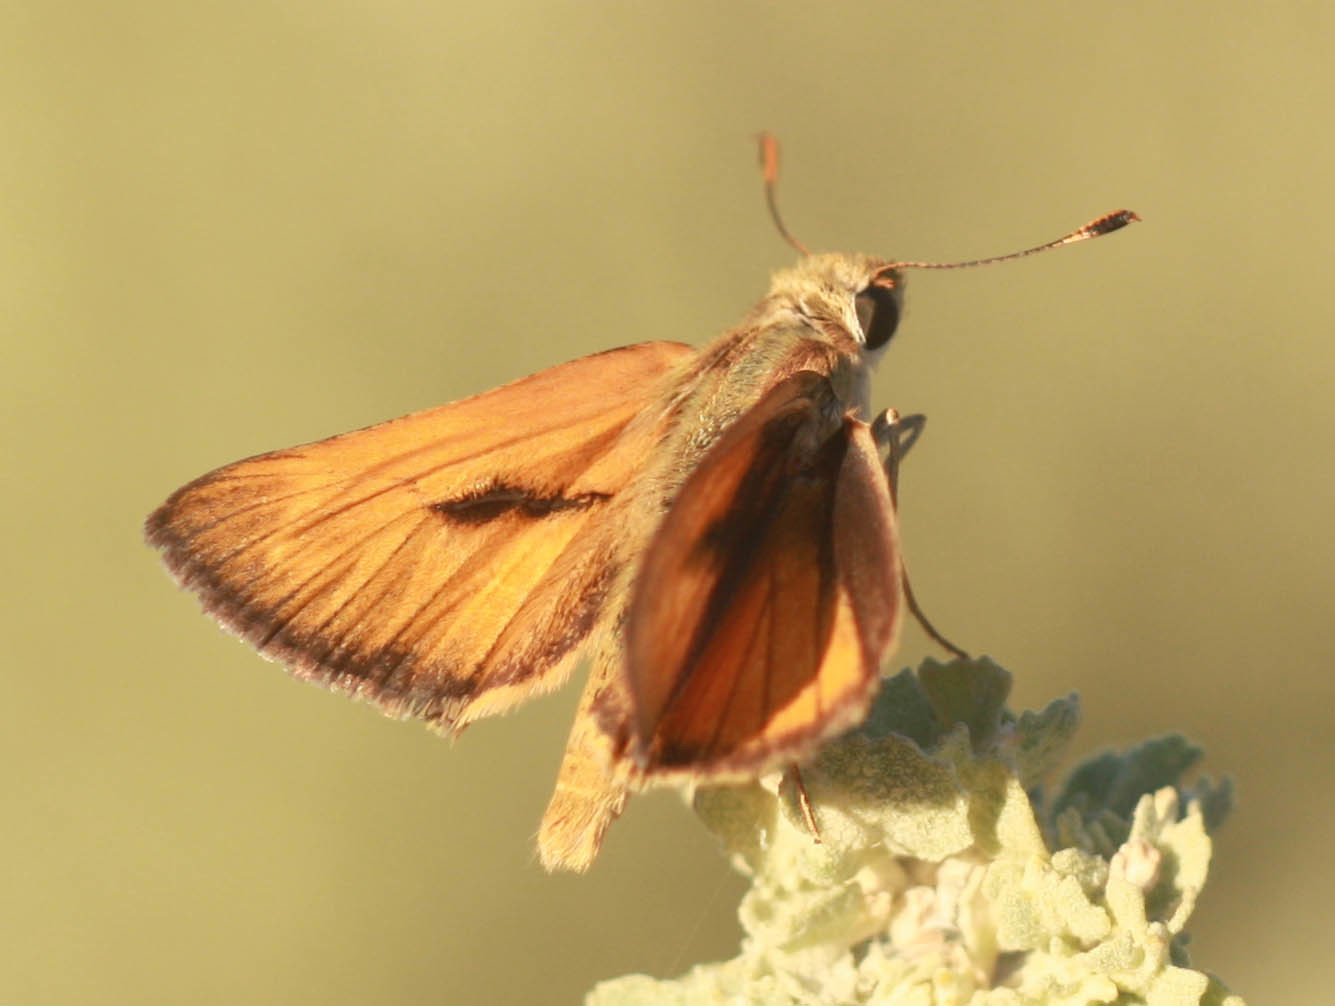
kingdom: Animalia
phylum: Arthropoda
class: Insecta
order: Lepidoptera
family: Hesperiidae
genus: Ochlodes
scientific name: Ochlodes sylvanoides
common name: Woodland skipper
